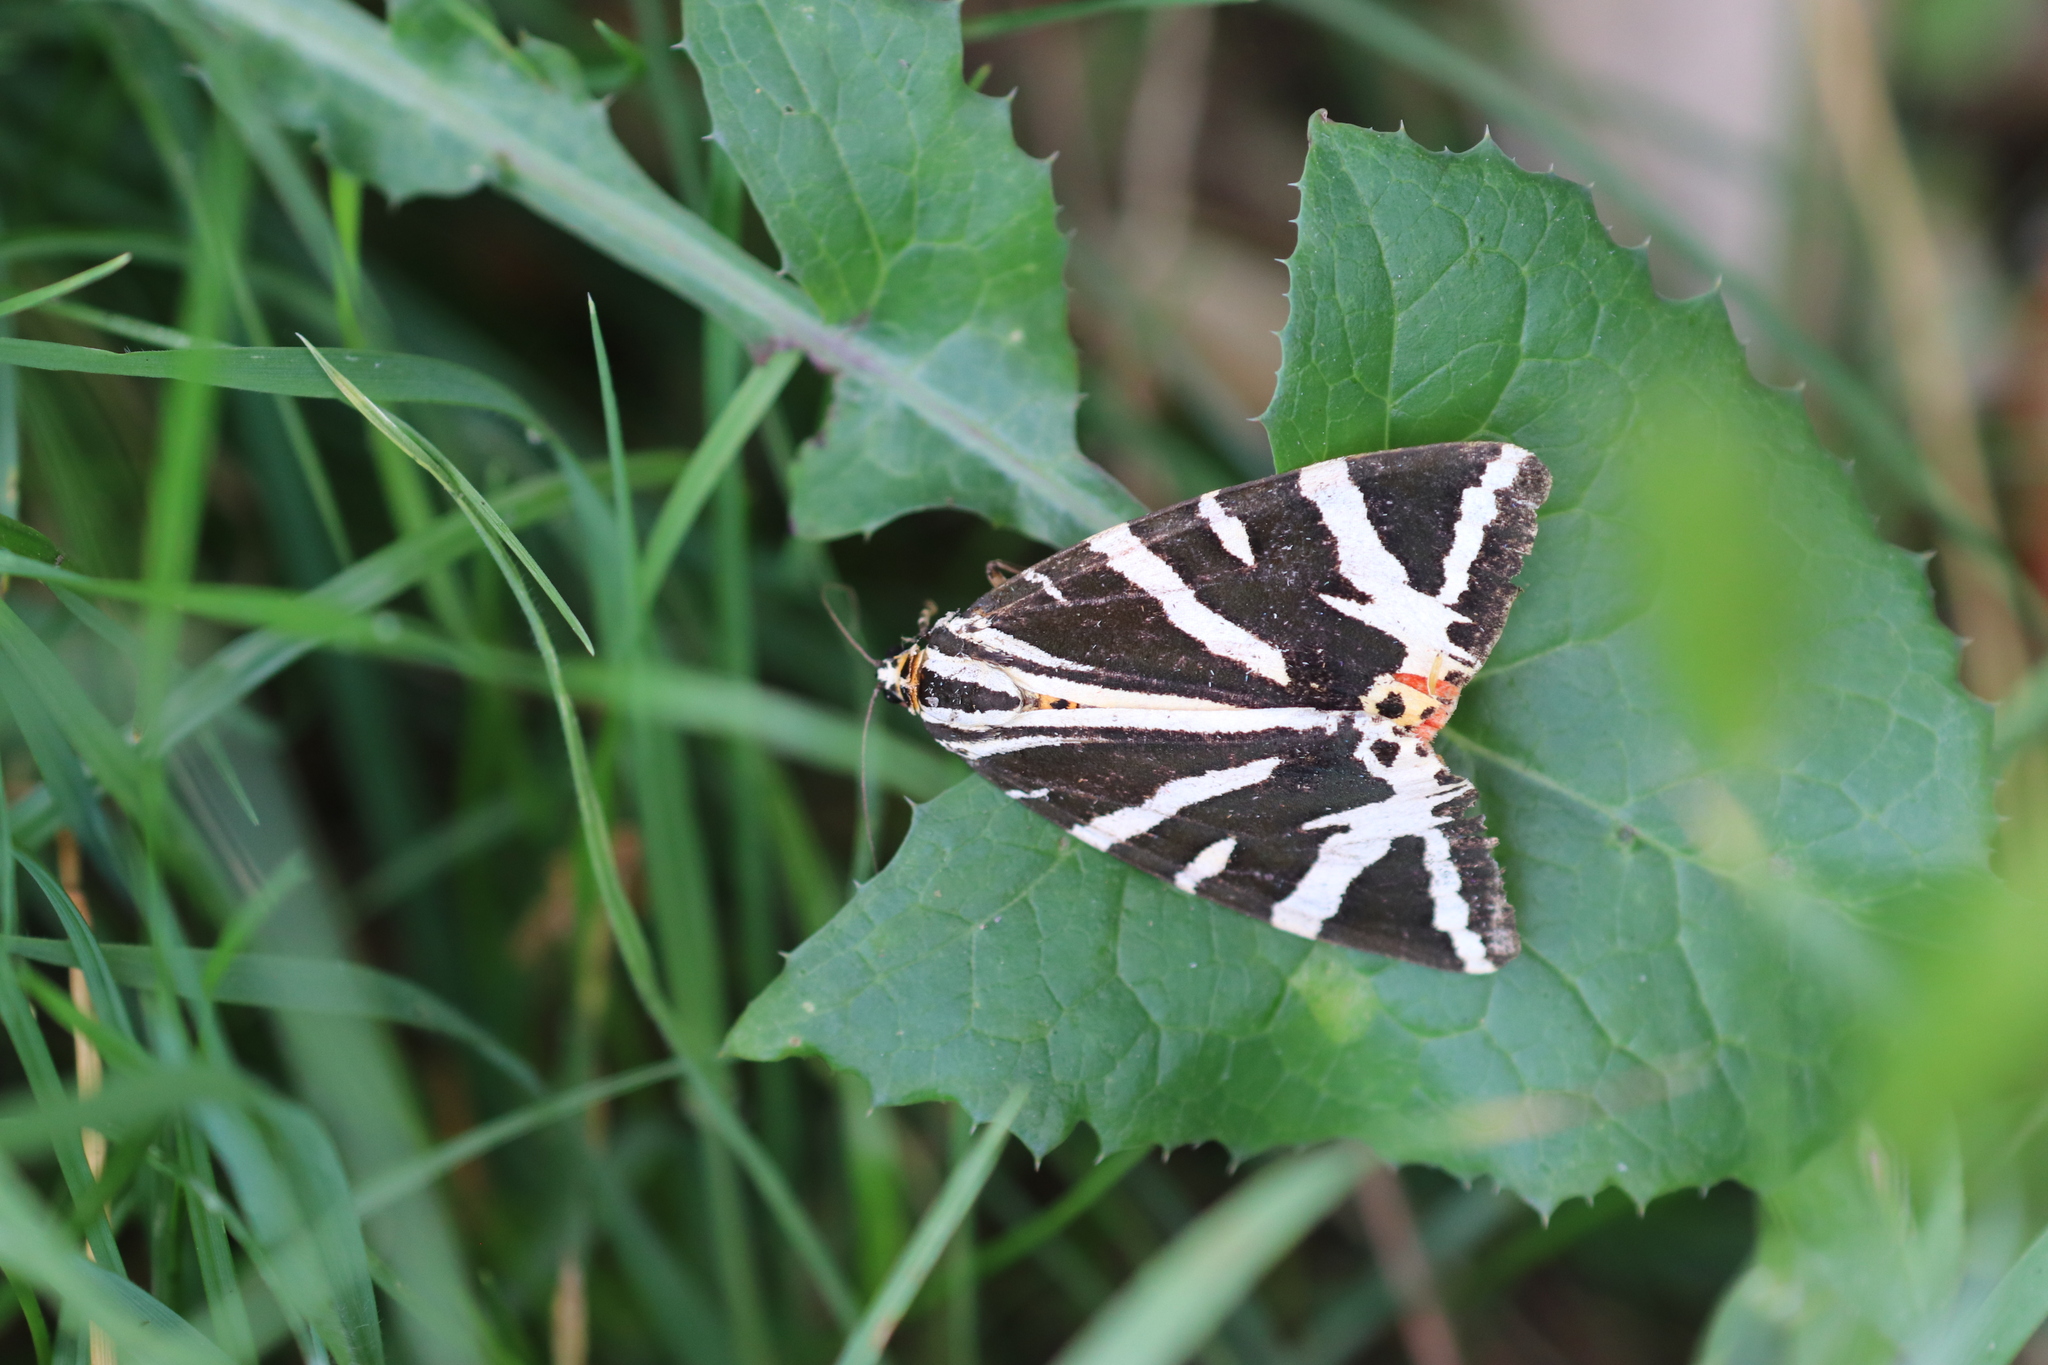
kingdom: Animalia
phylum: Arthropoda
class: Insecta
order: Lepidoptera
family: Erebidae
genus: Euplagia
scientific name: Euplagia quadripunctaria
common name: Jersey tiger
